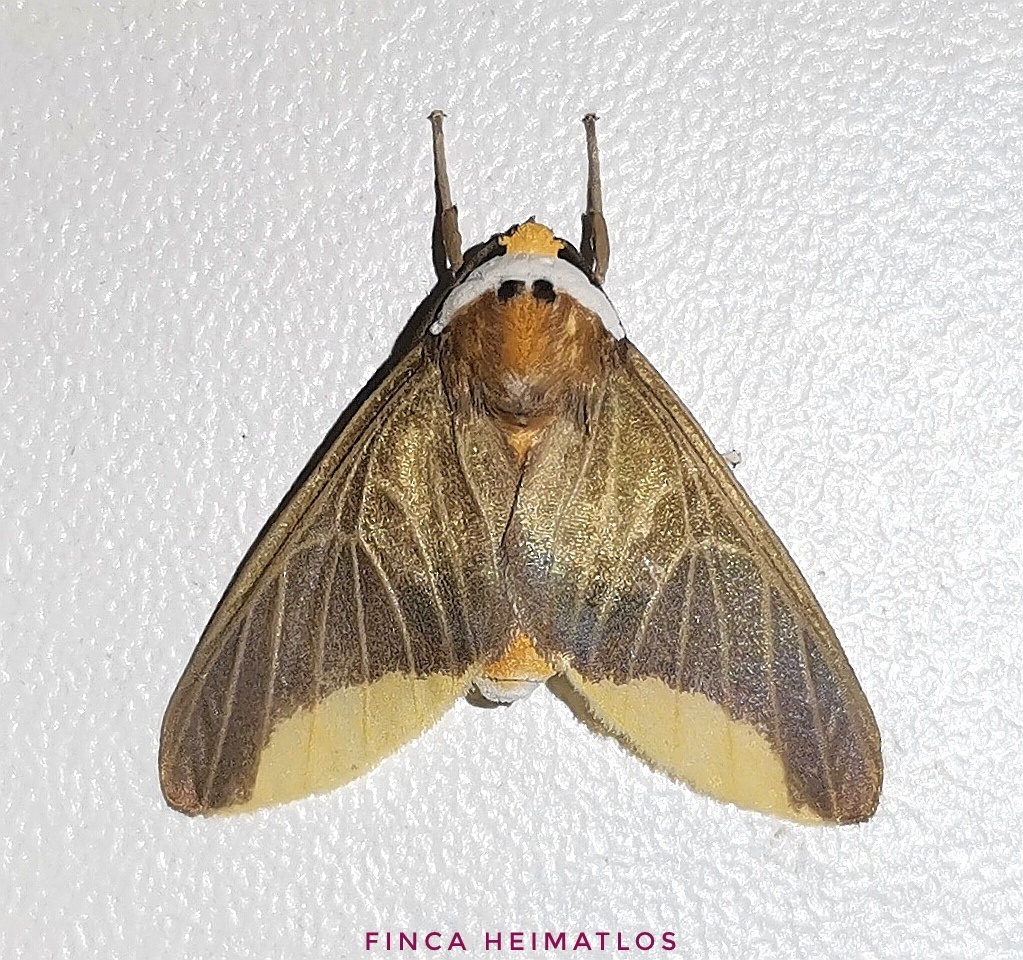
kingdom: Animalia
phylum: Arthropoda
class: Insecta
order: Lepidoptera
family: Erebidae
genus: Hyperandra
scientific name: Hyperandra diminuta
